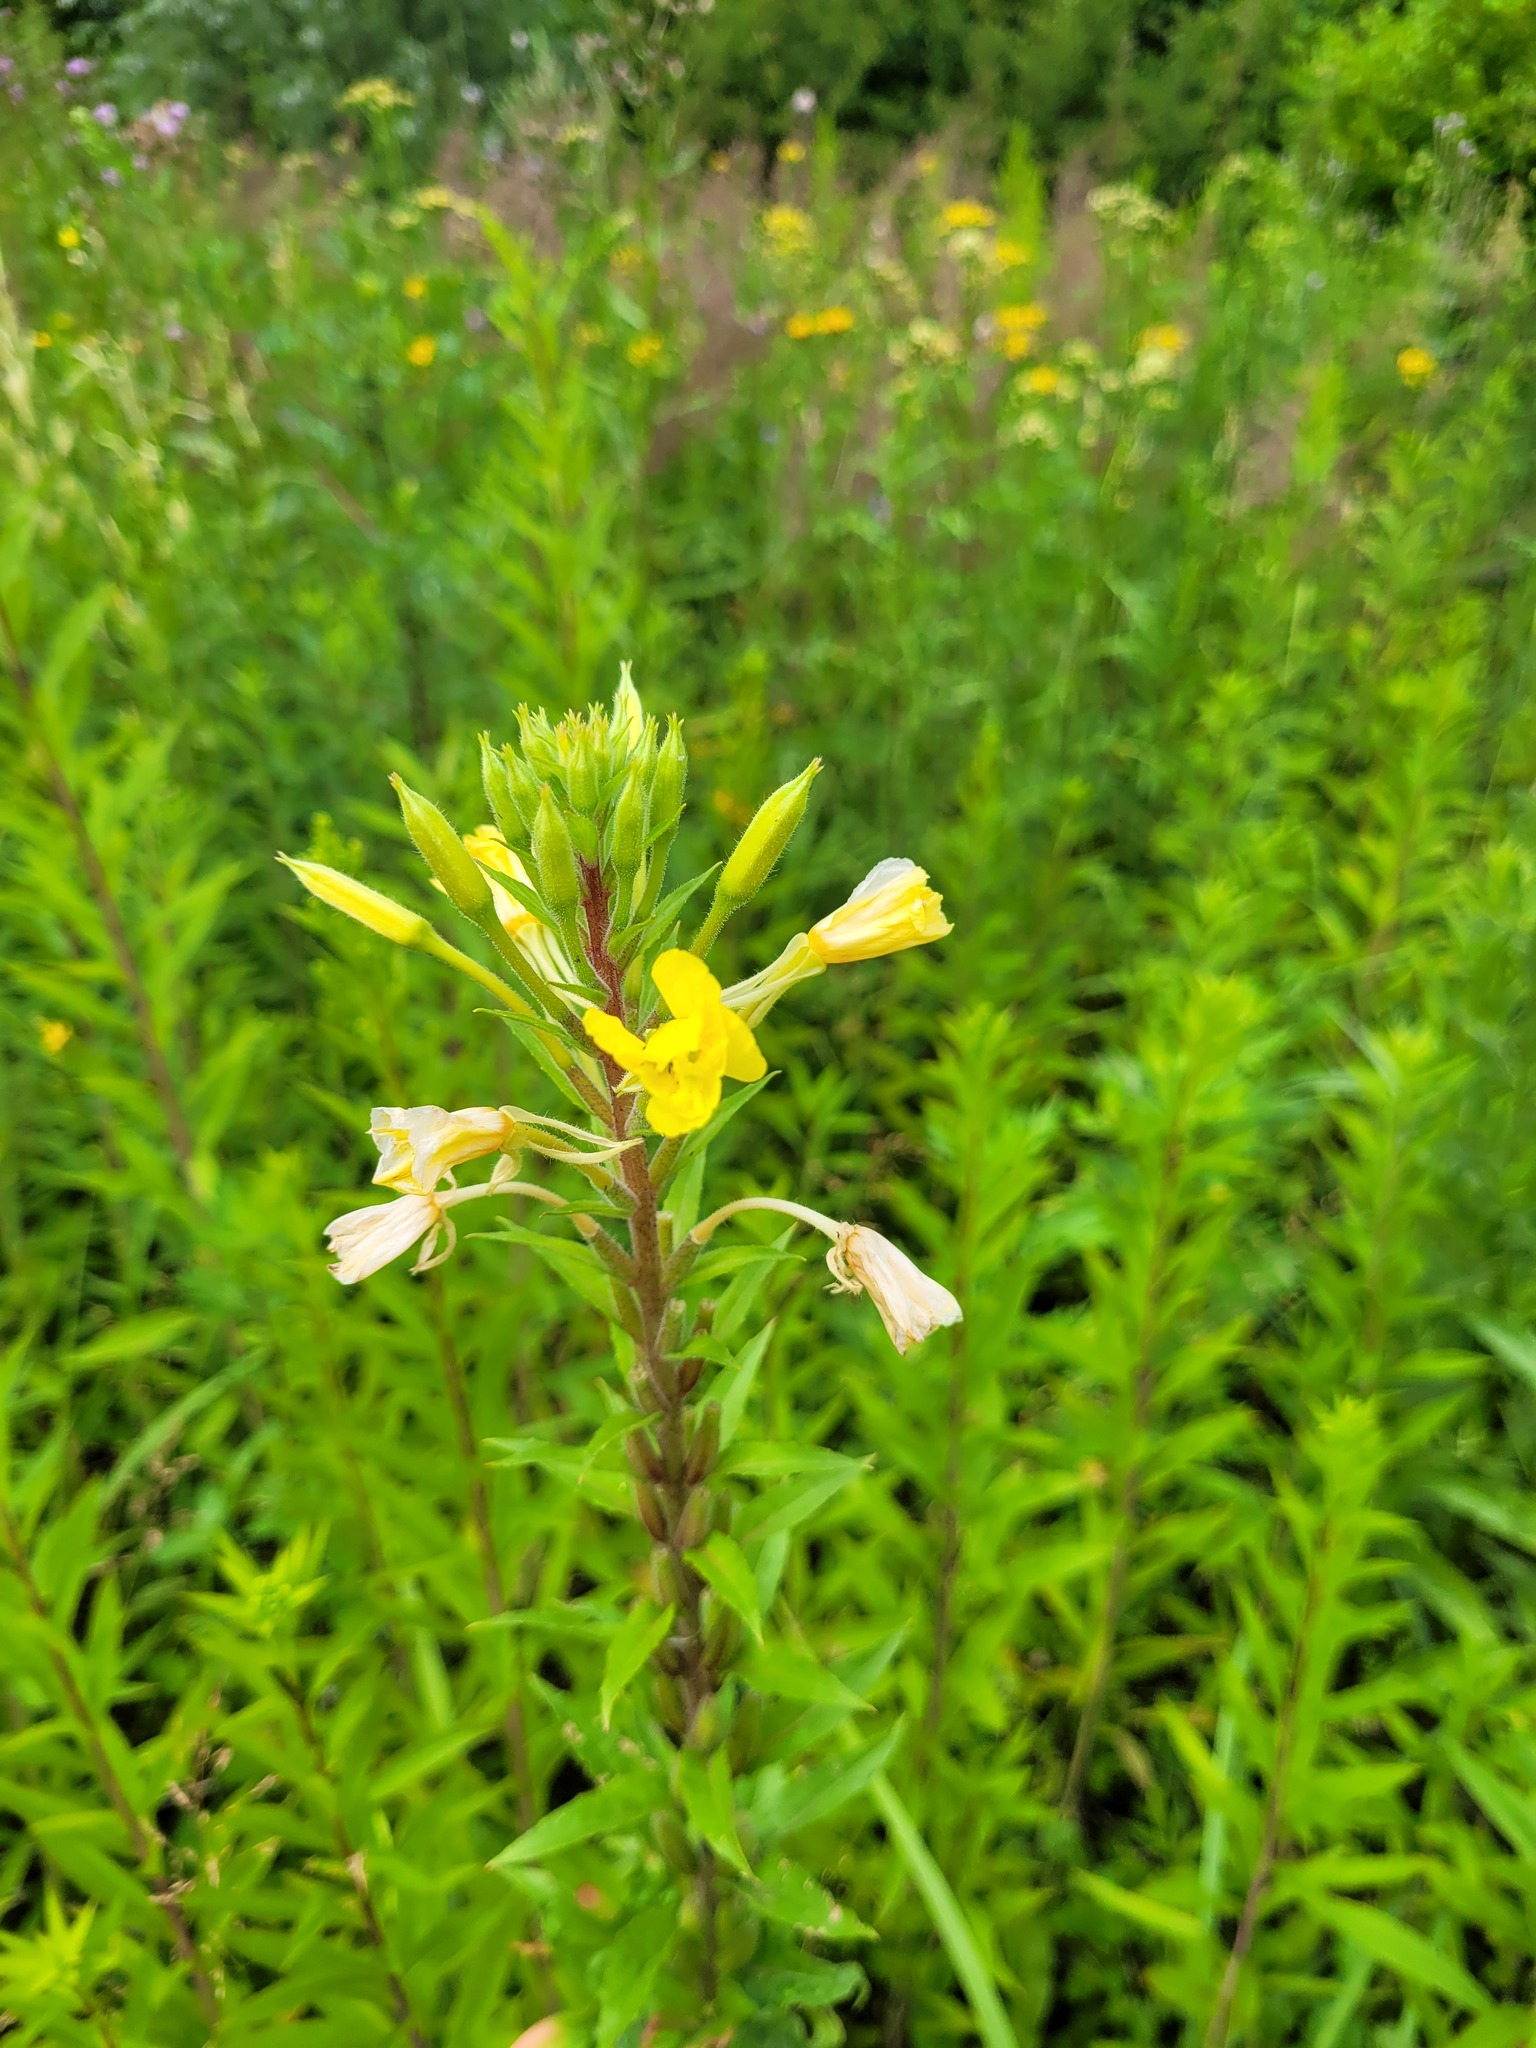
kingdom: Plantae
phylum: Tracheophyta
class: Magnoliopsida
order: Myrtales
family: Onagraceae
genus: Oenothera
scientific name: Oenothera rubricaulis
